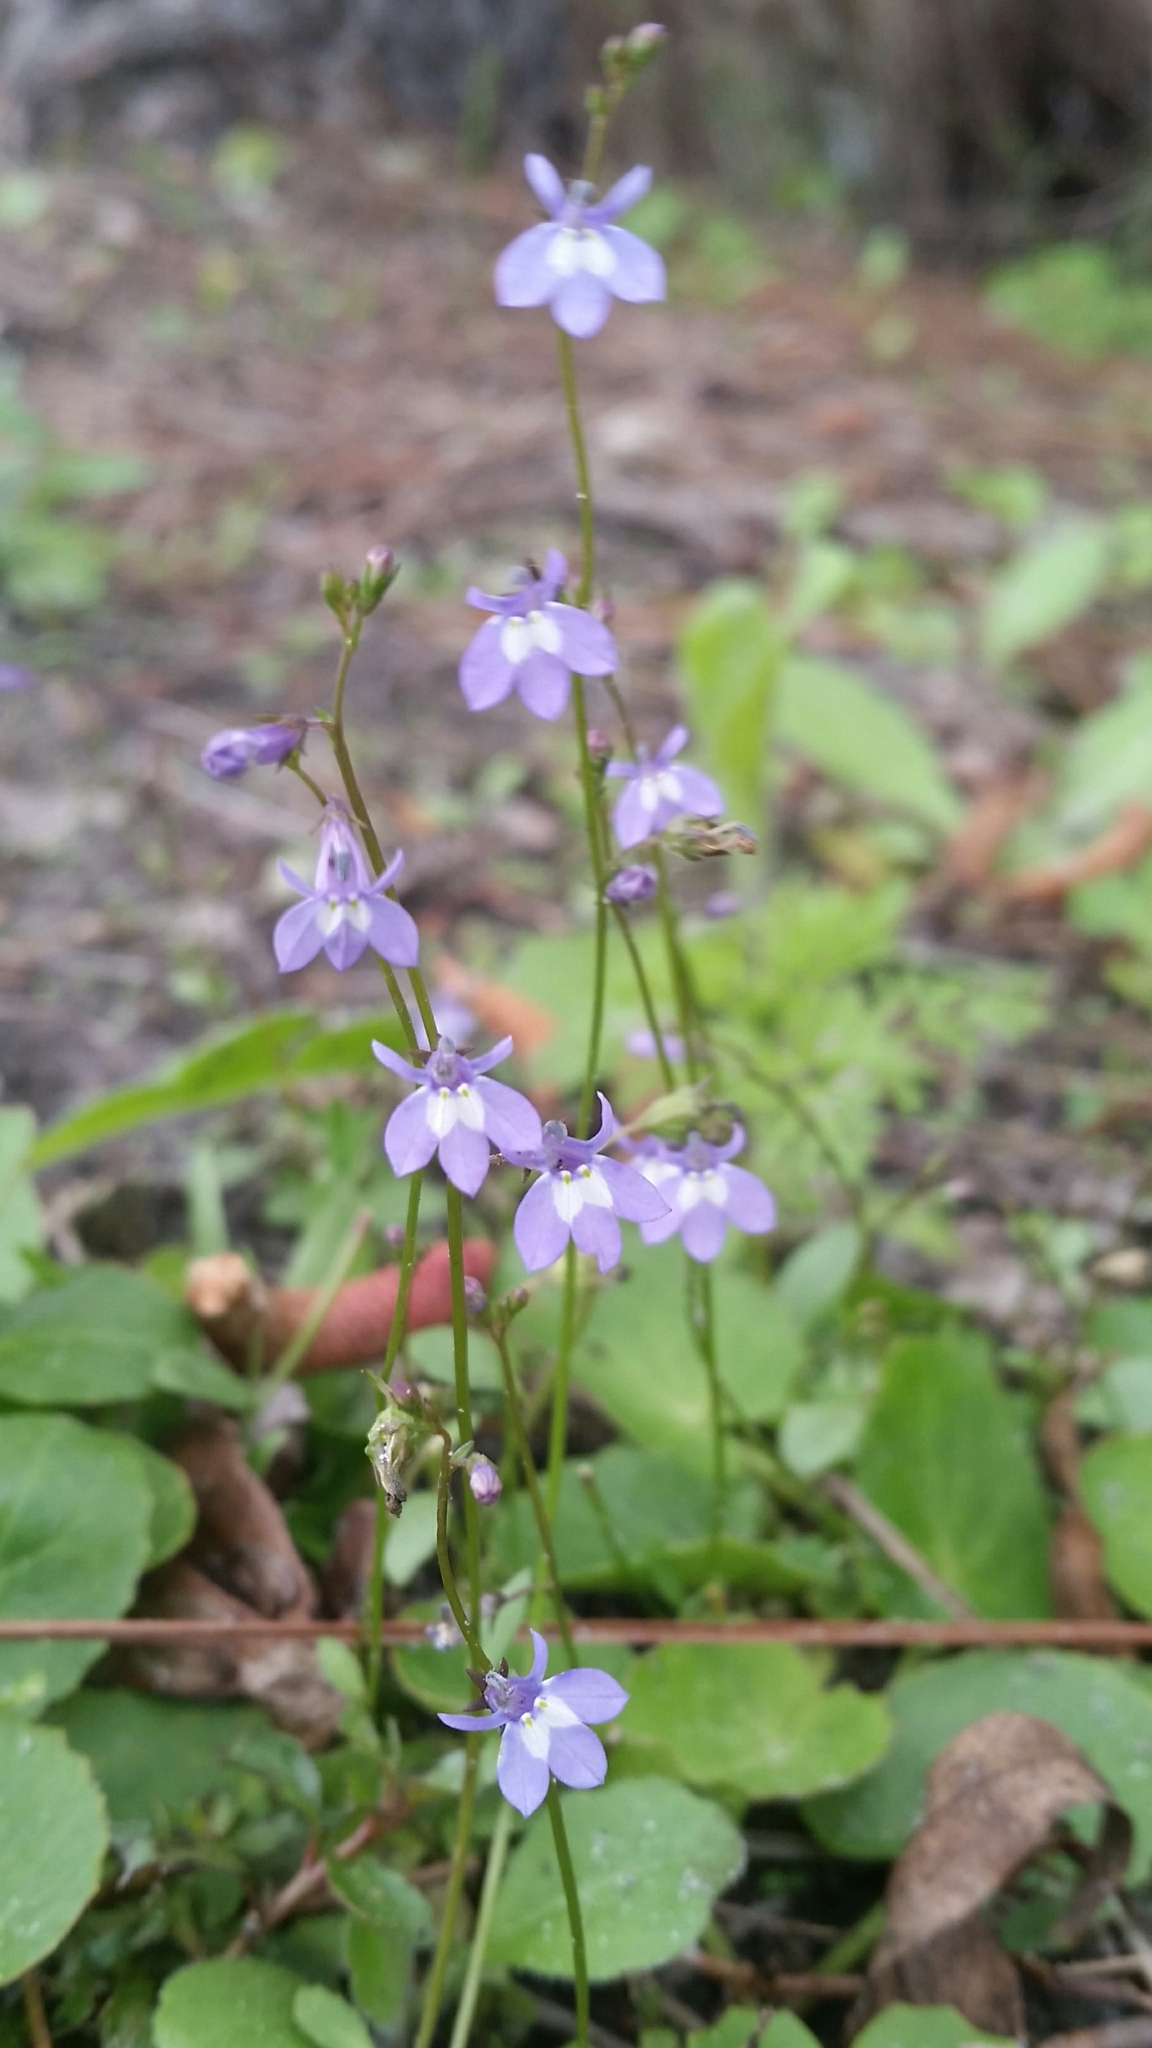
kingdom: Plantae
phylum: Tracheophyta
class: Magnoliopsida
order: Asterales
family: Campanulaceae
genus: Lobelia
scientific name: Lobelia feayana
